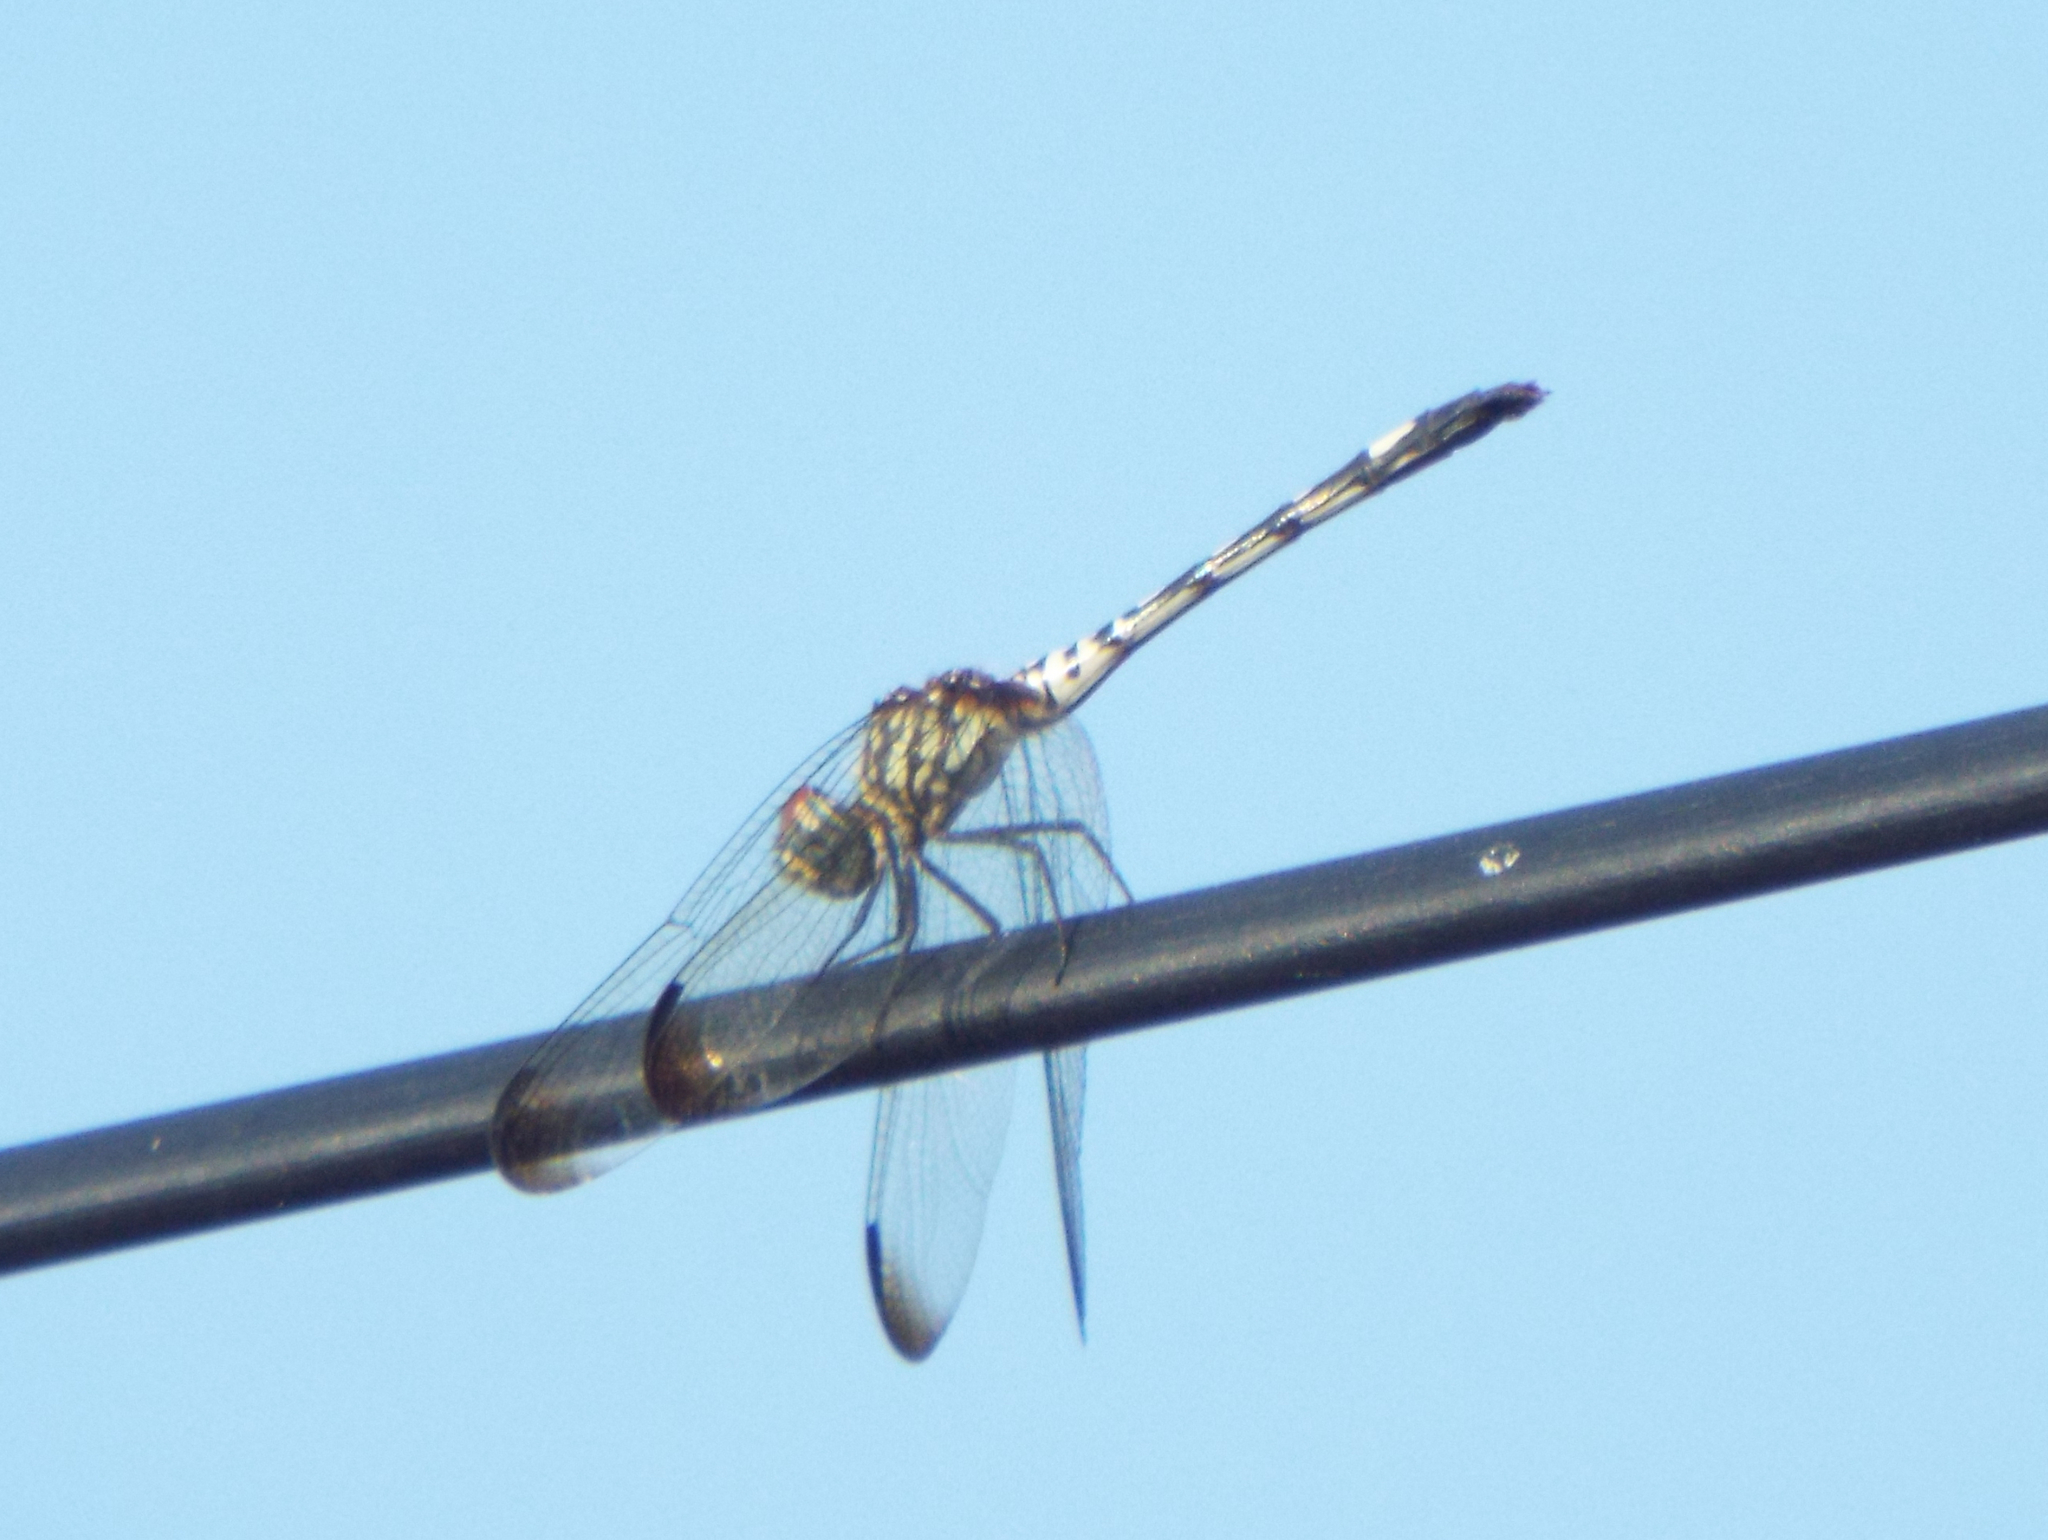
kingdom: Animalia
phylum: Arthropoda
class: Insecta
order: Odonata
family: Libellulidae
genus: Dythemis
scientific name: Dythemis velox
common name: Swift setwing
